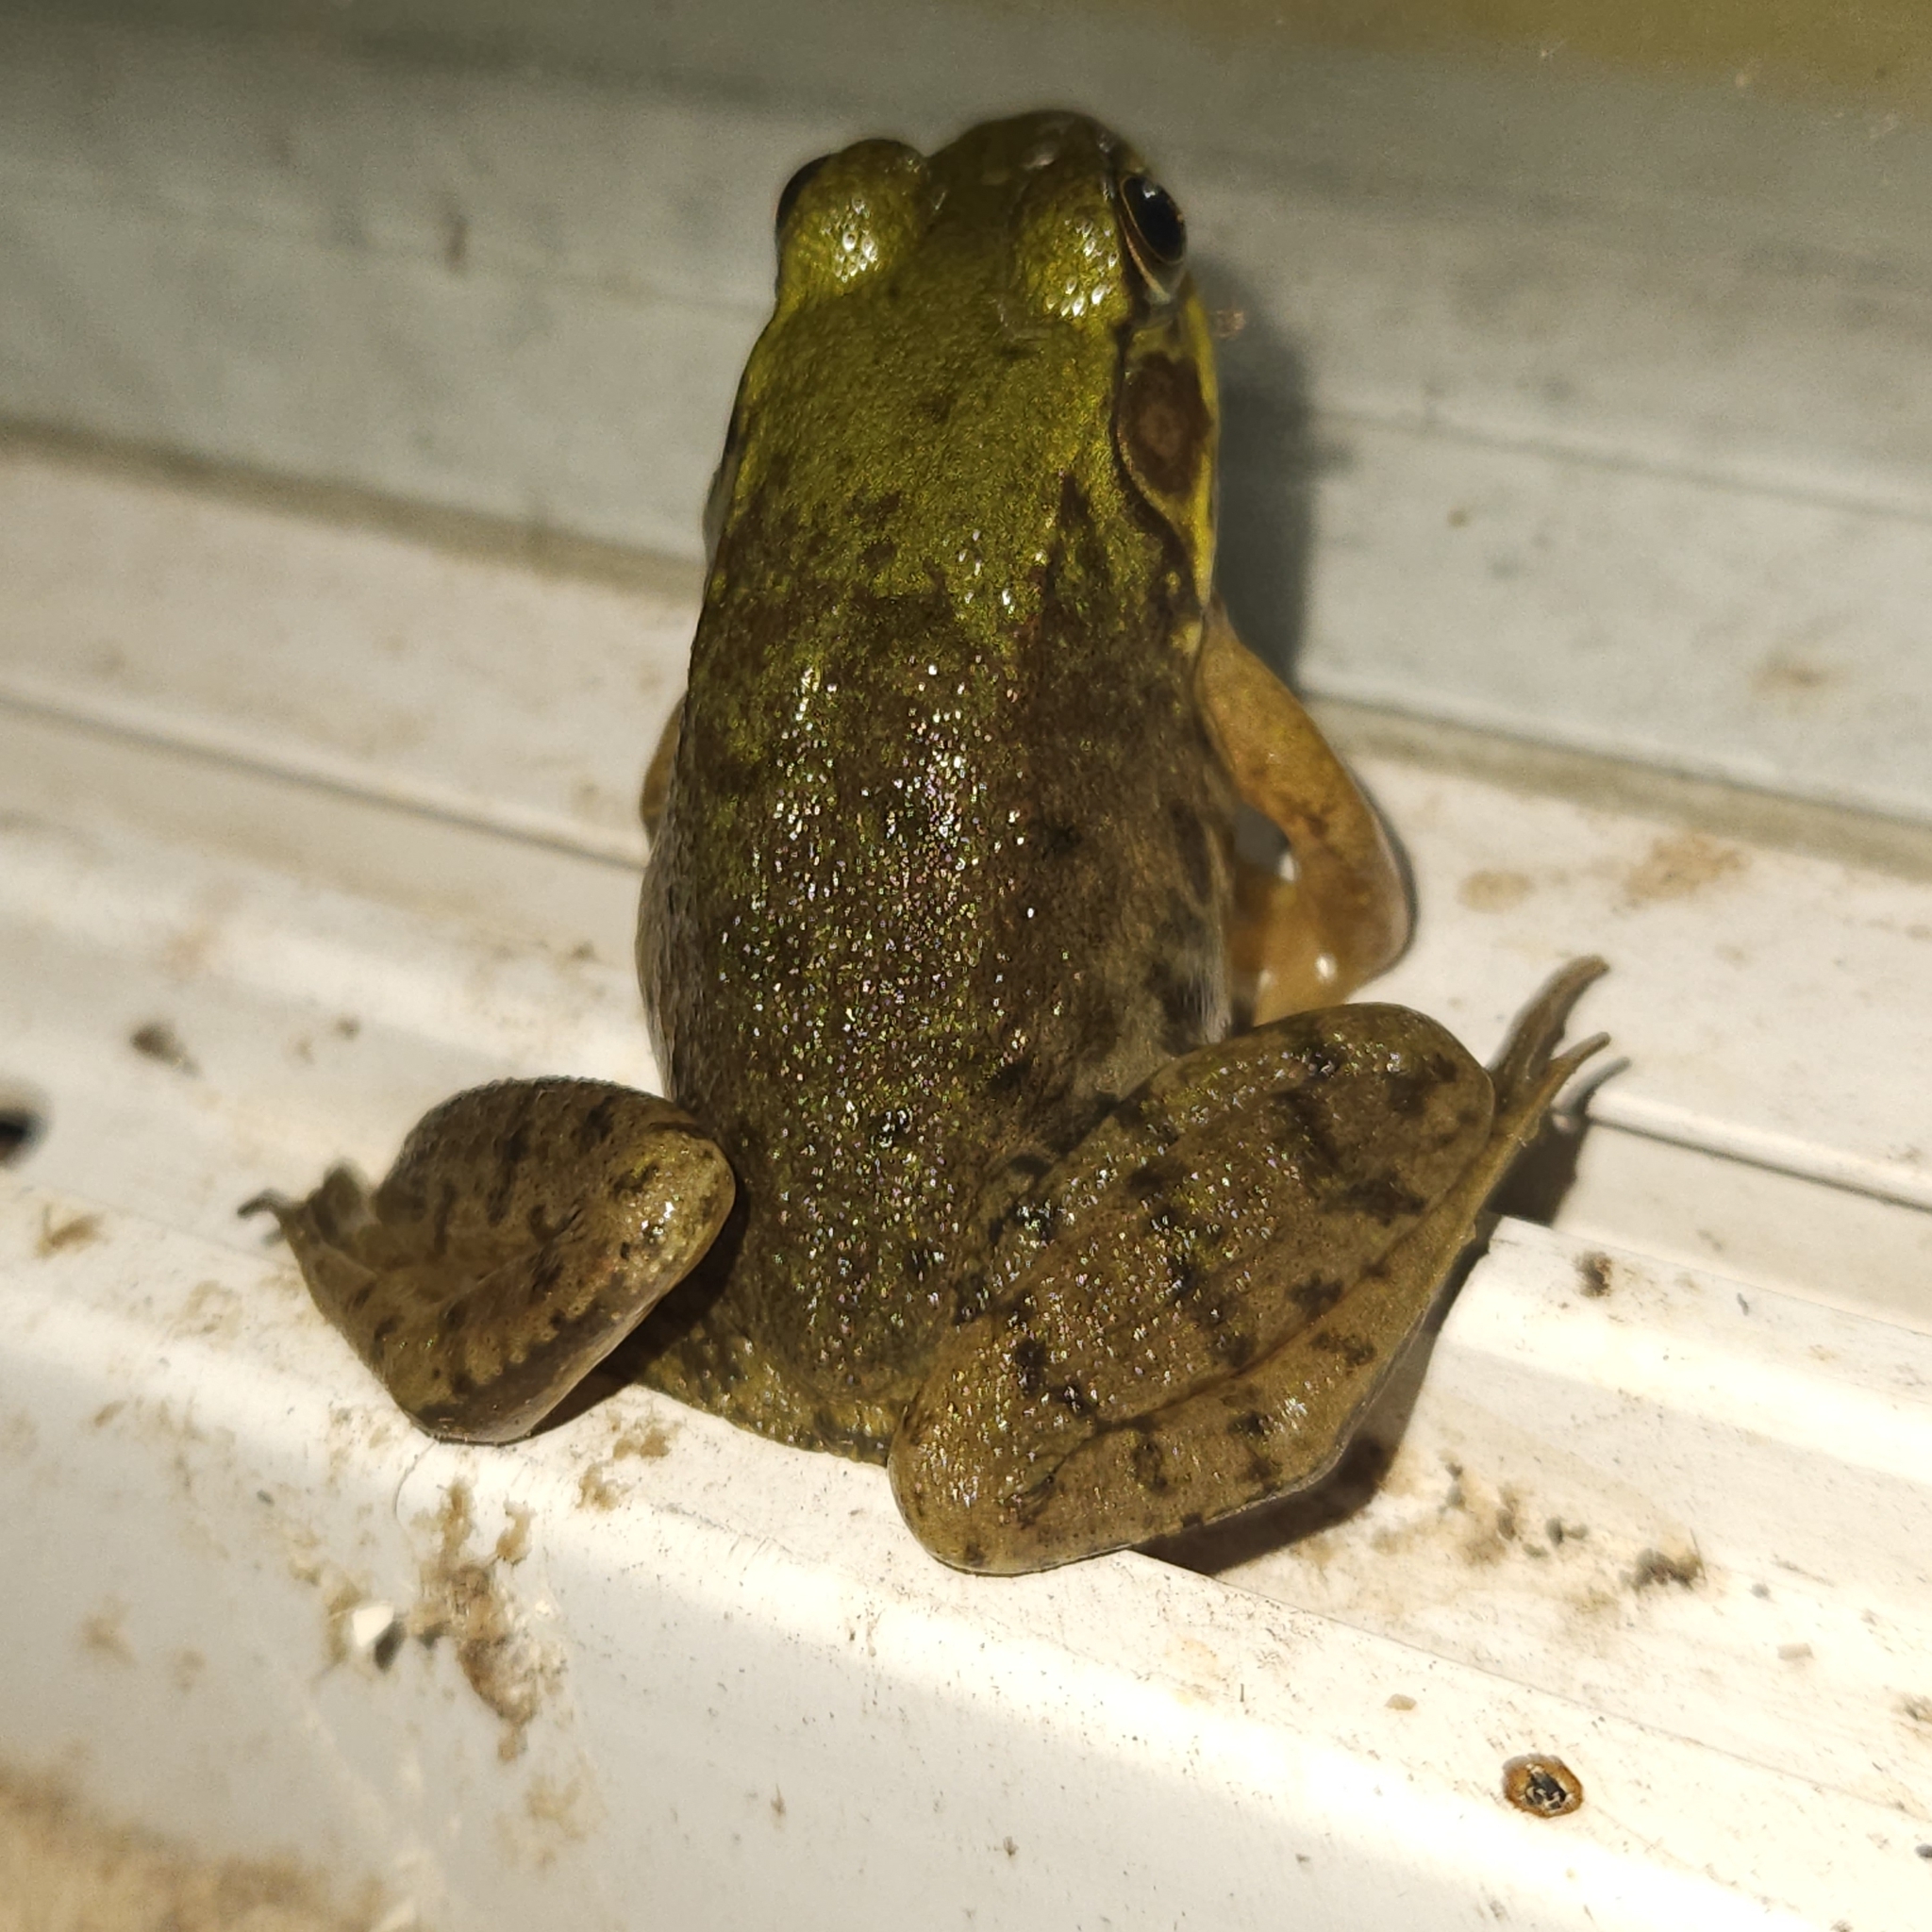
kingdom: Animalia
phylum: Chordata
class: Amphibia
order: Anura
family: Ranidae
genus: Lithobates
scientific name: Lithobates clamitans
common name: Green frog
